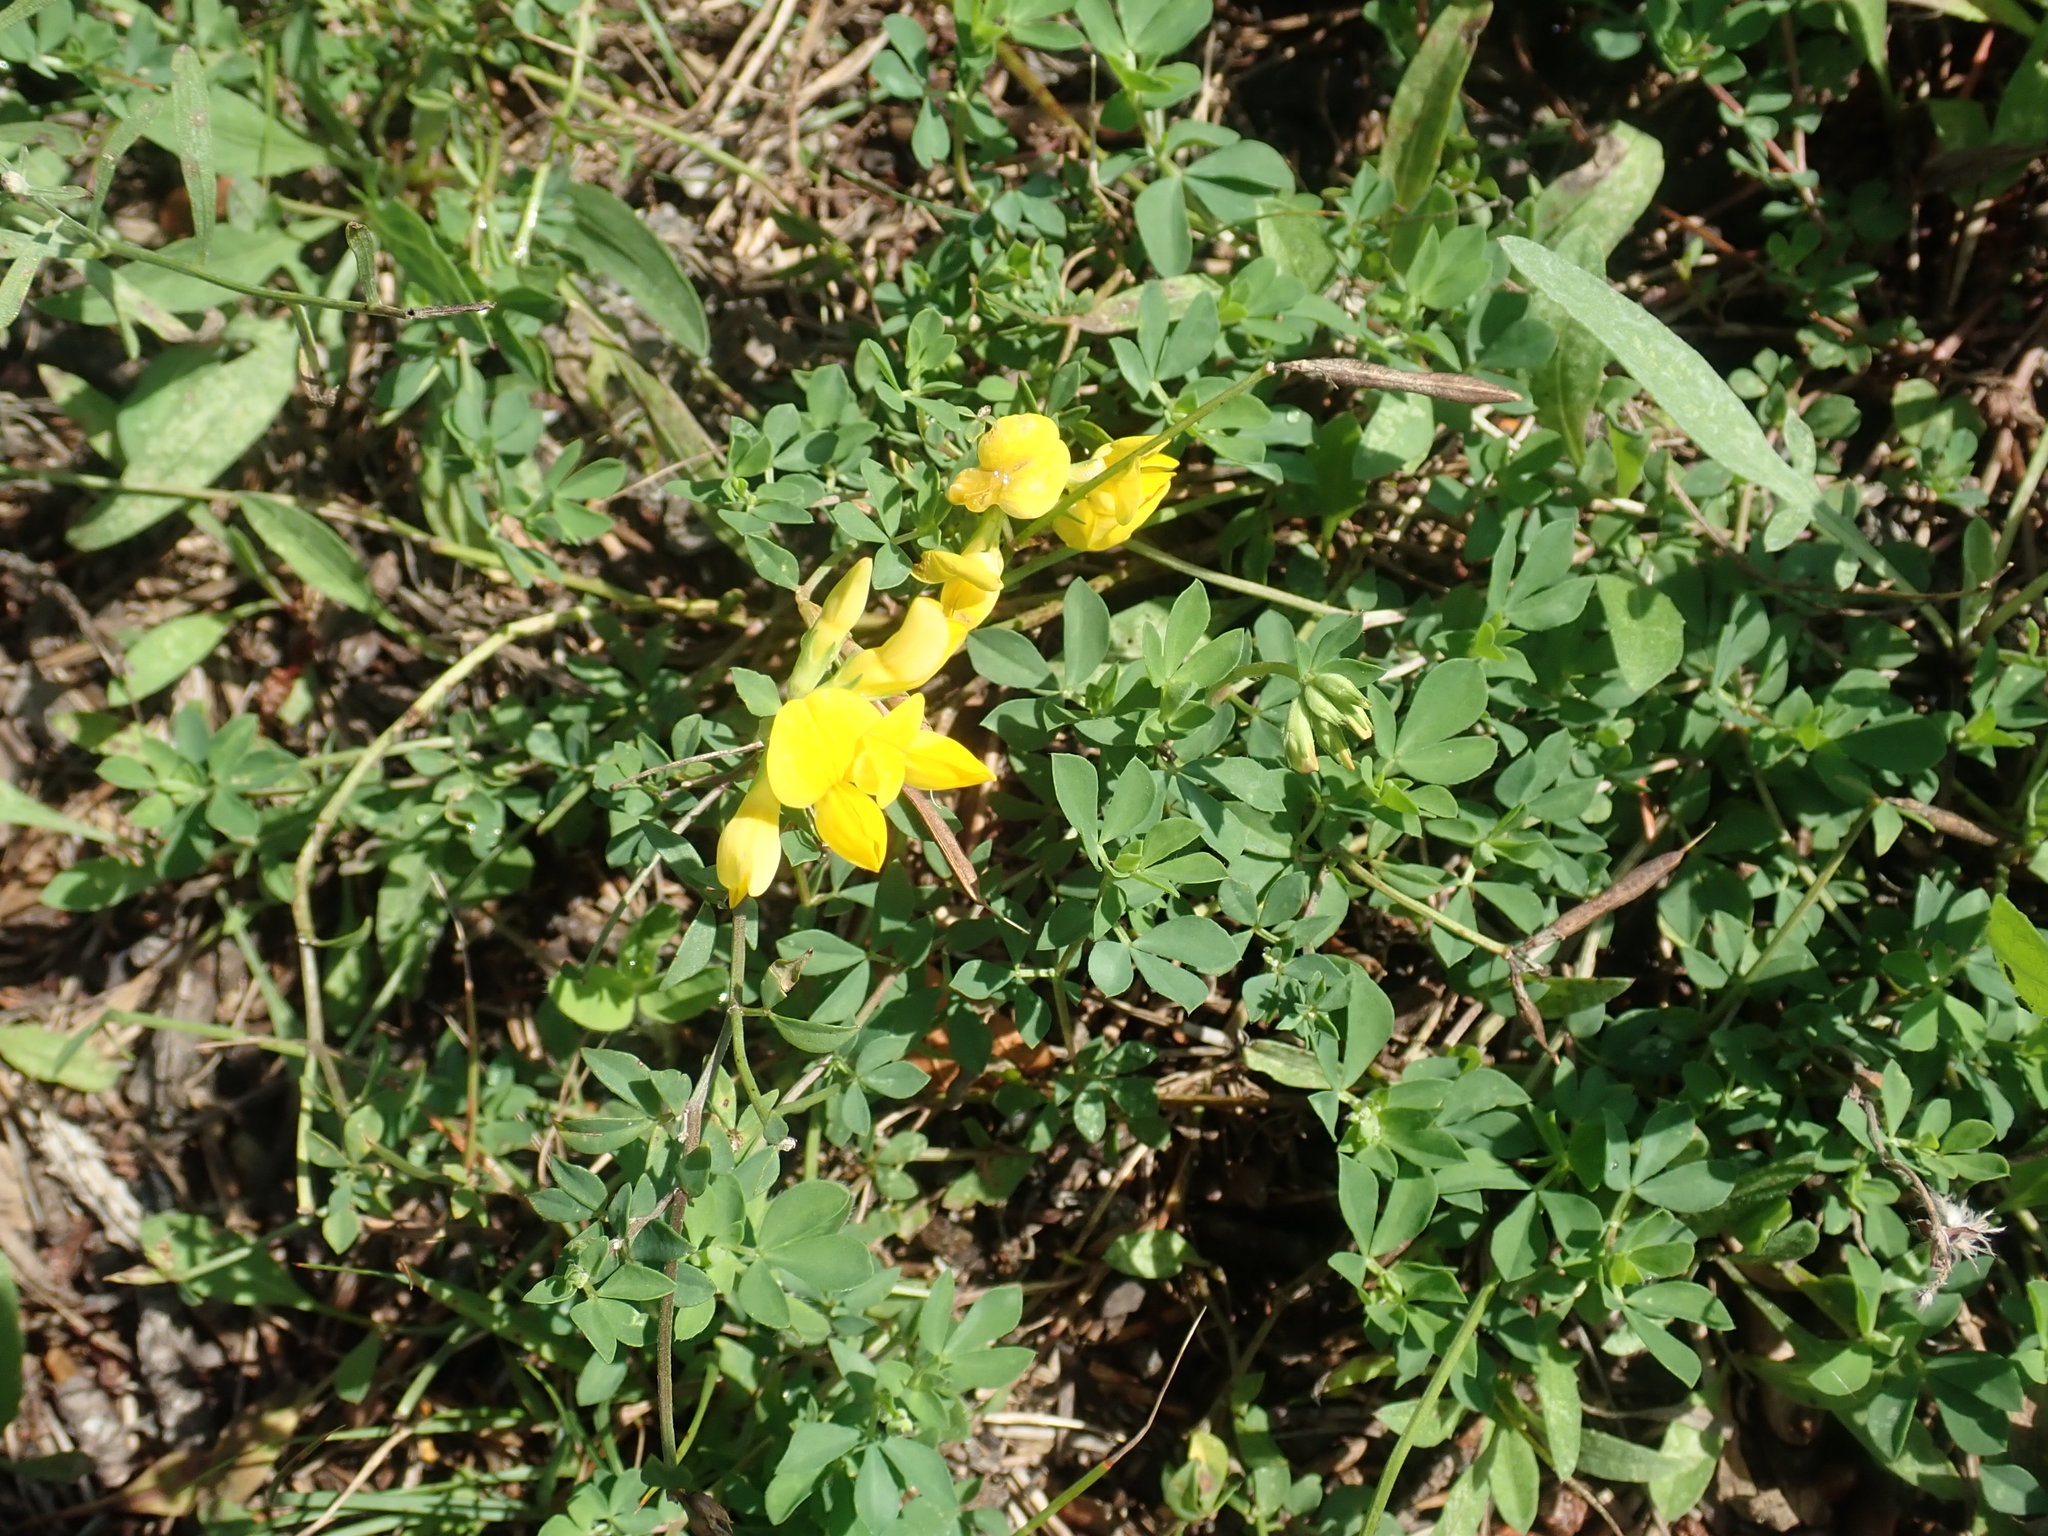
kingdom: Plantae
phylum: Tracheophyta
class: Magnoliopsida
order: Fabales
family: Fabaceae
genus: Lotus
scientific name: Lotus corniculatus
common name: Common bird's-foot-trefoil
